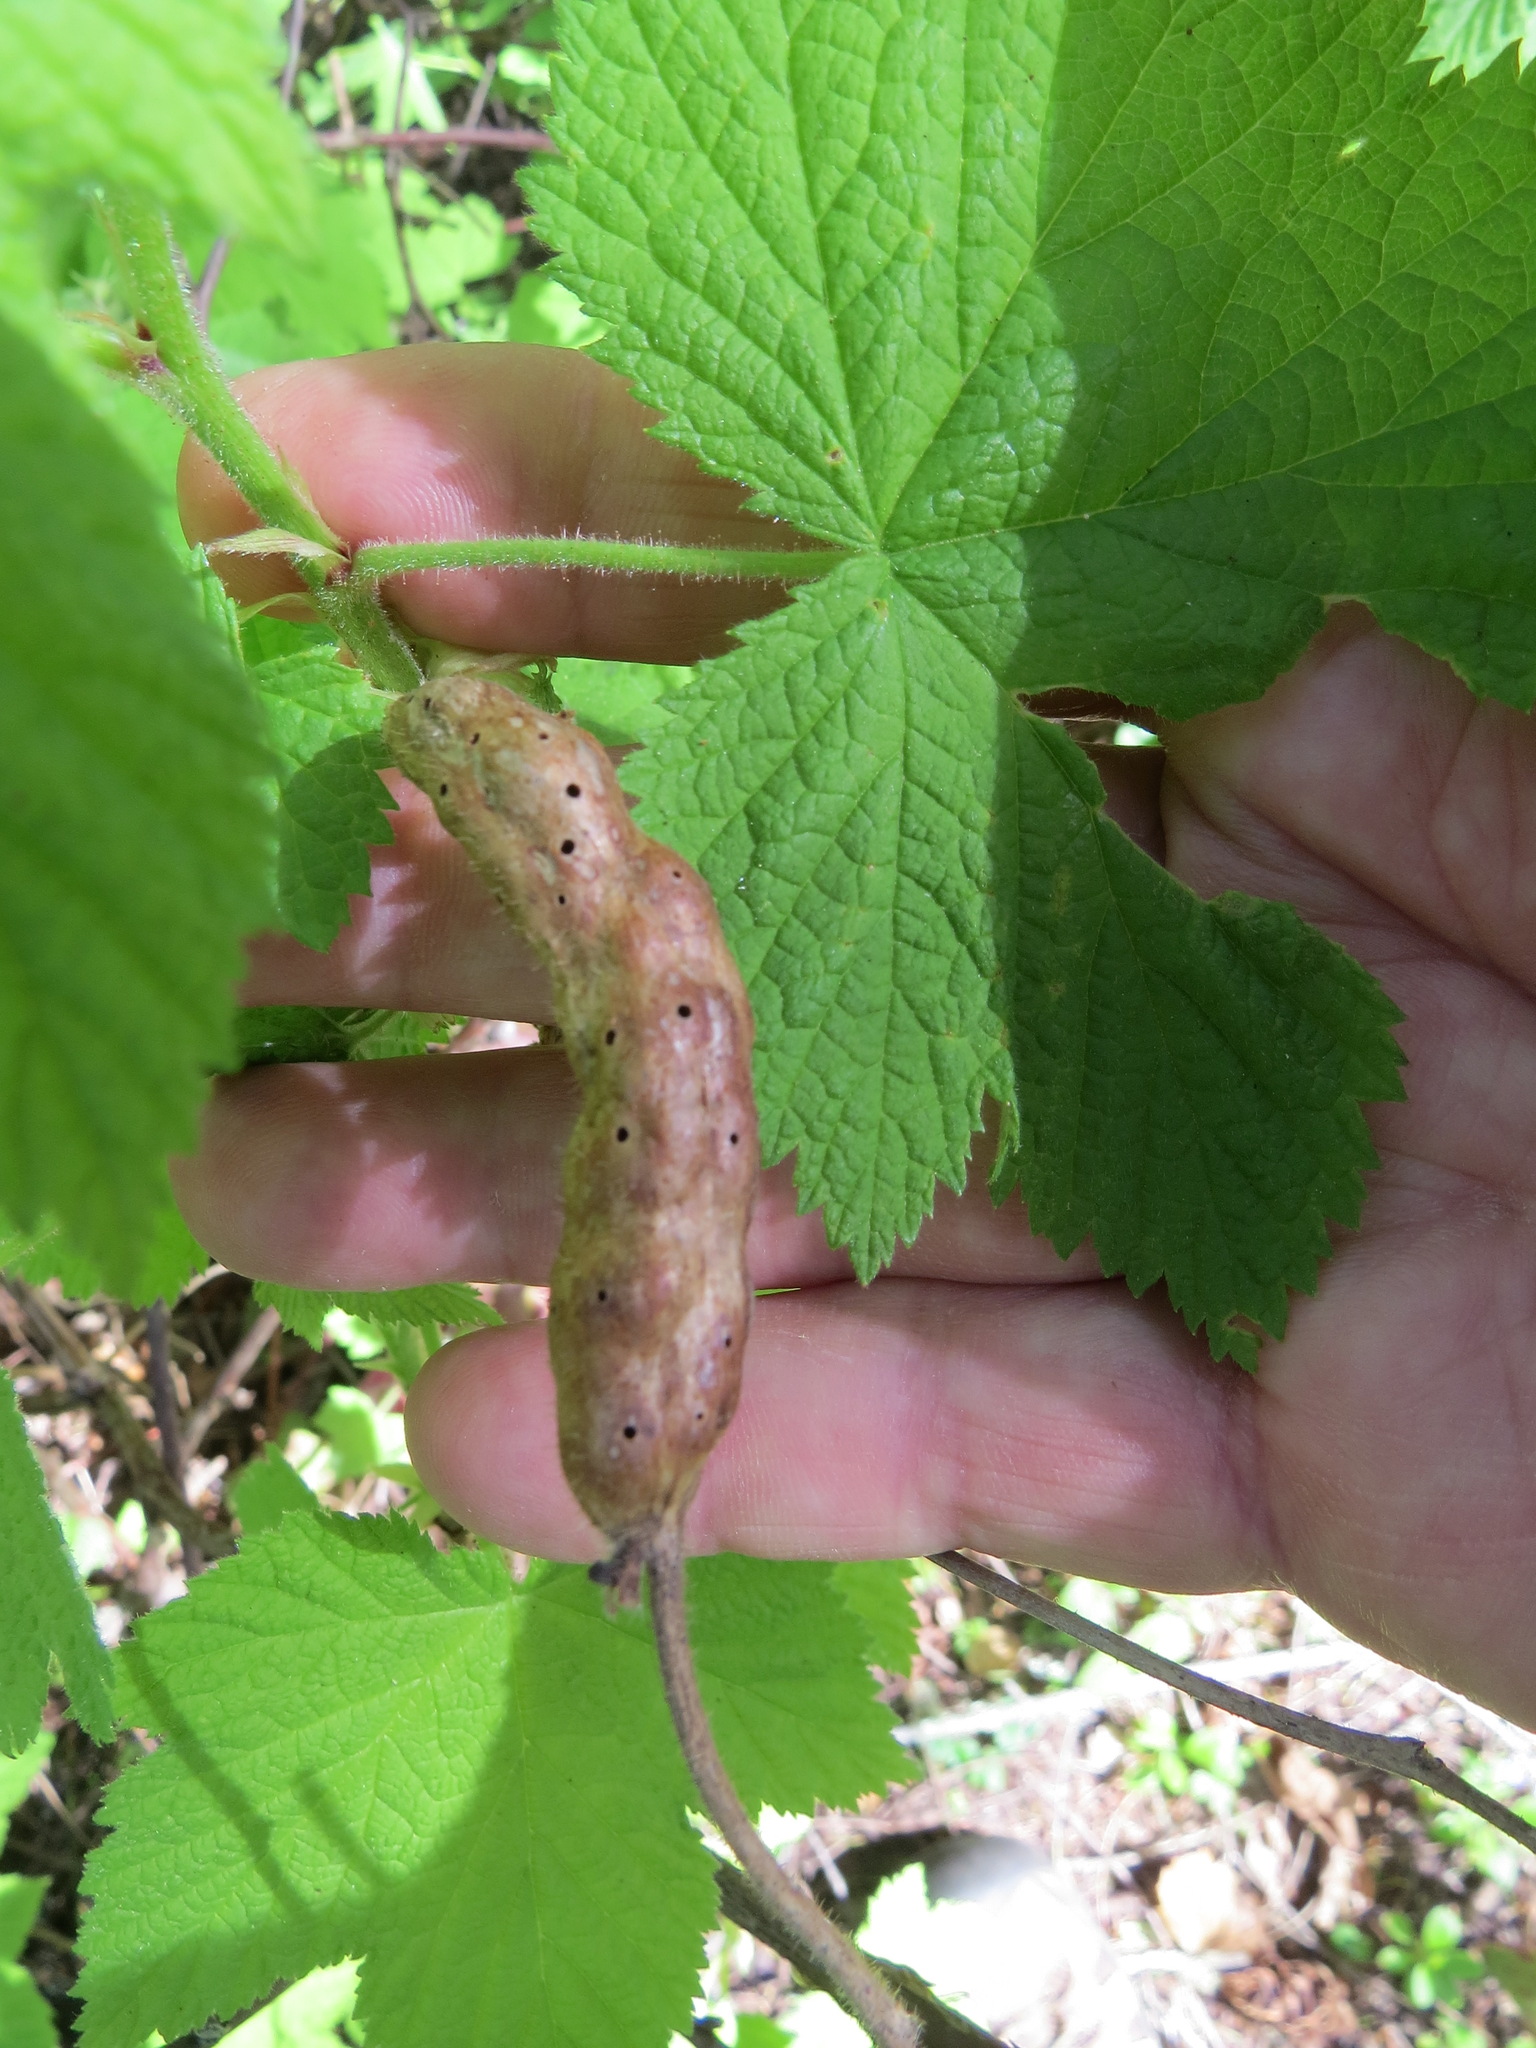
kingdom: Animalia
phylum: Arthropoda
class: Insecta
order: Hymenoptera
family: Cynipidae
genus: Diastrophus
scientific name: Diastrophus
